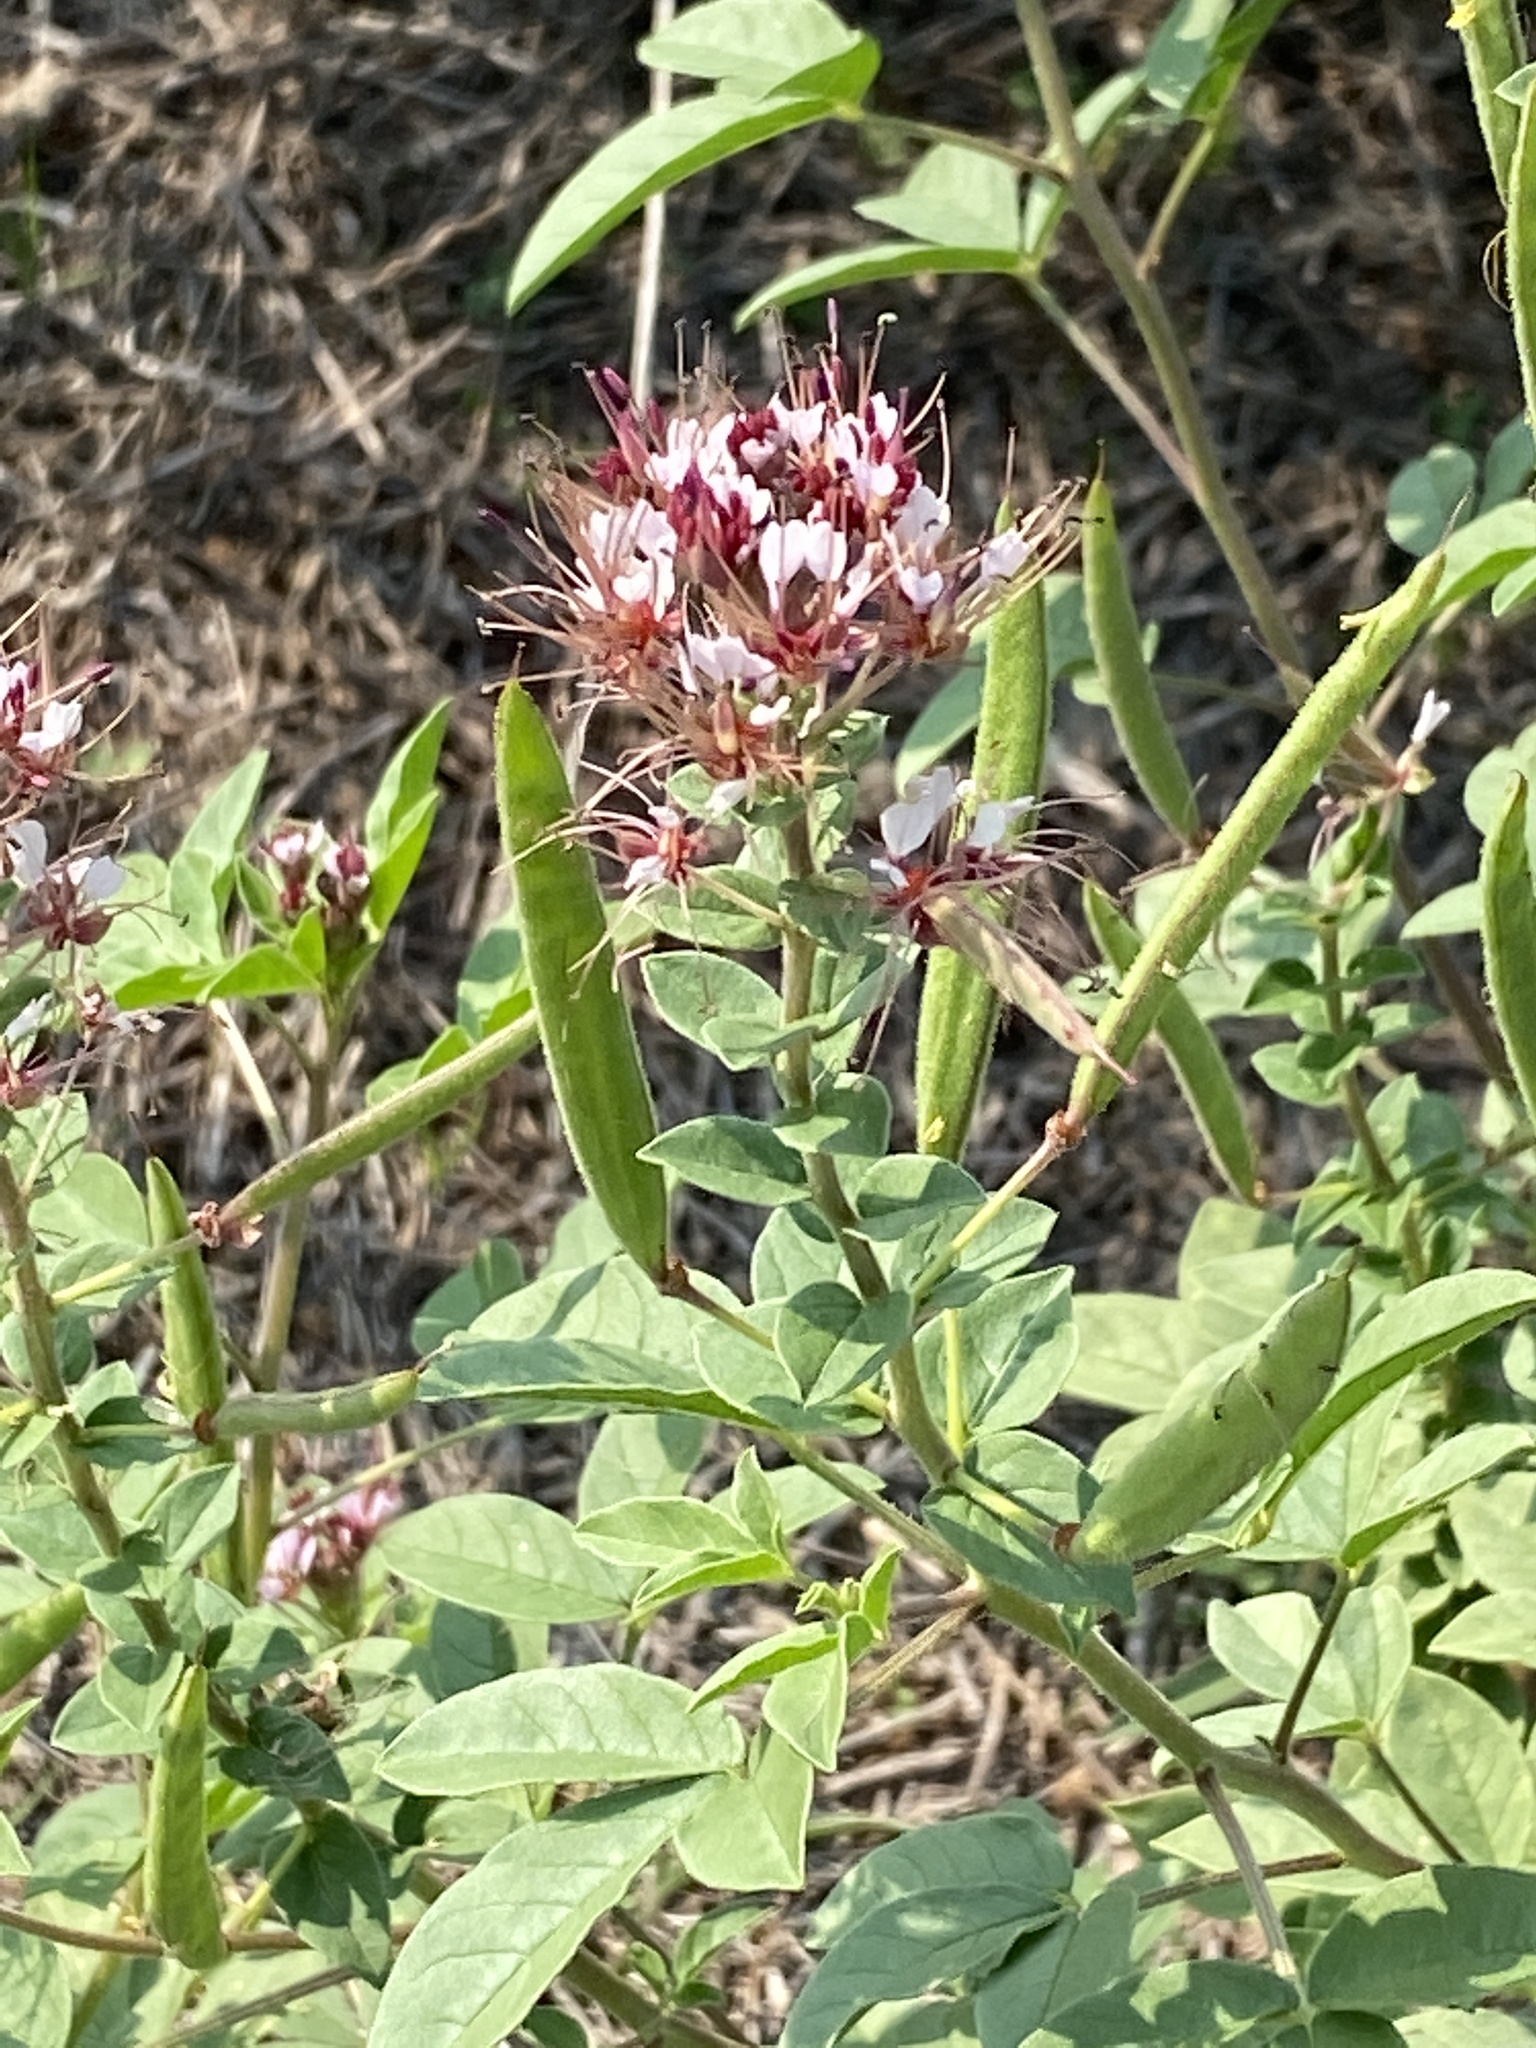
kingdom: Plantae
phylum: Tracheophyta
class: Magnoliopsida
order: Brassicales
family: Cleomaceae
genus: Polanisia
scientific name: Polanisia dodecandra
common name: Clammyweed
